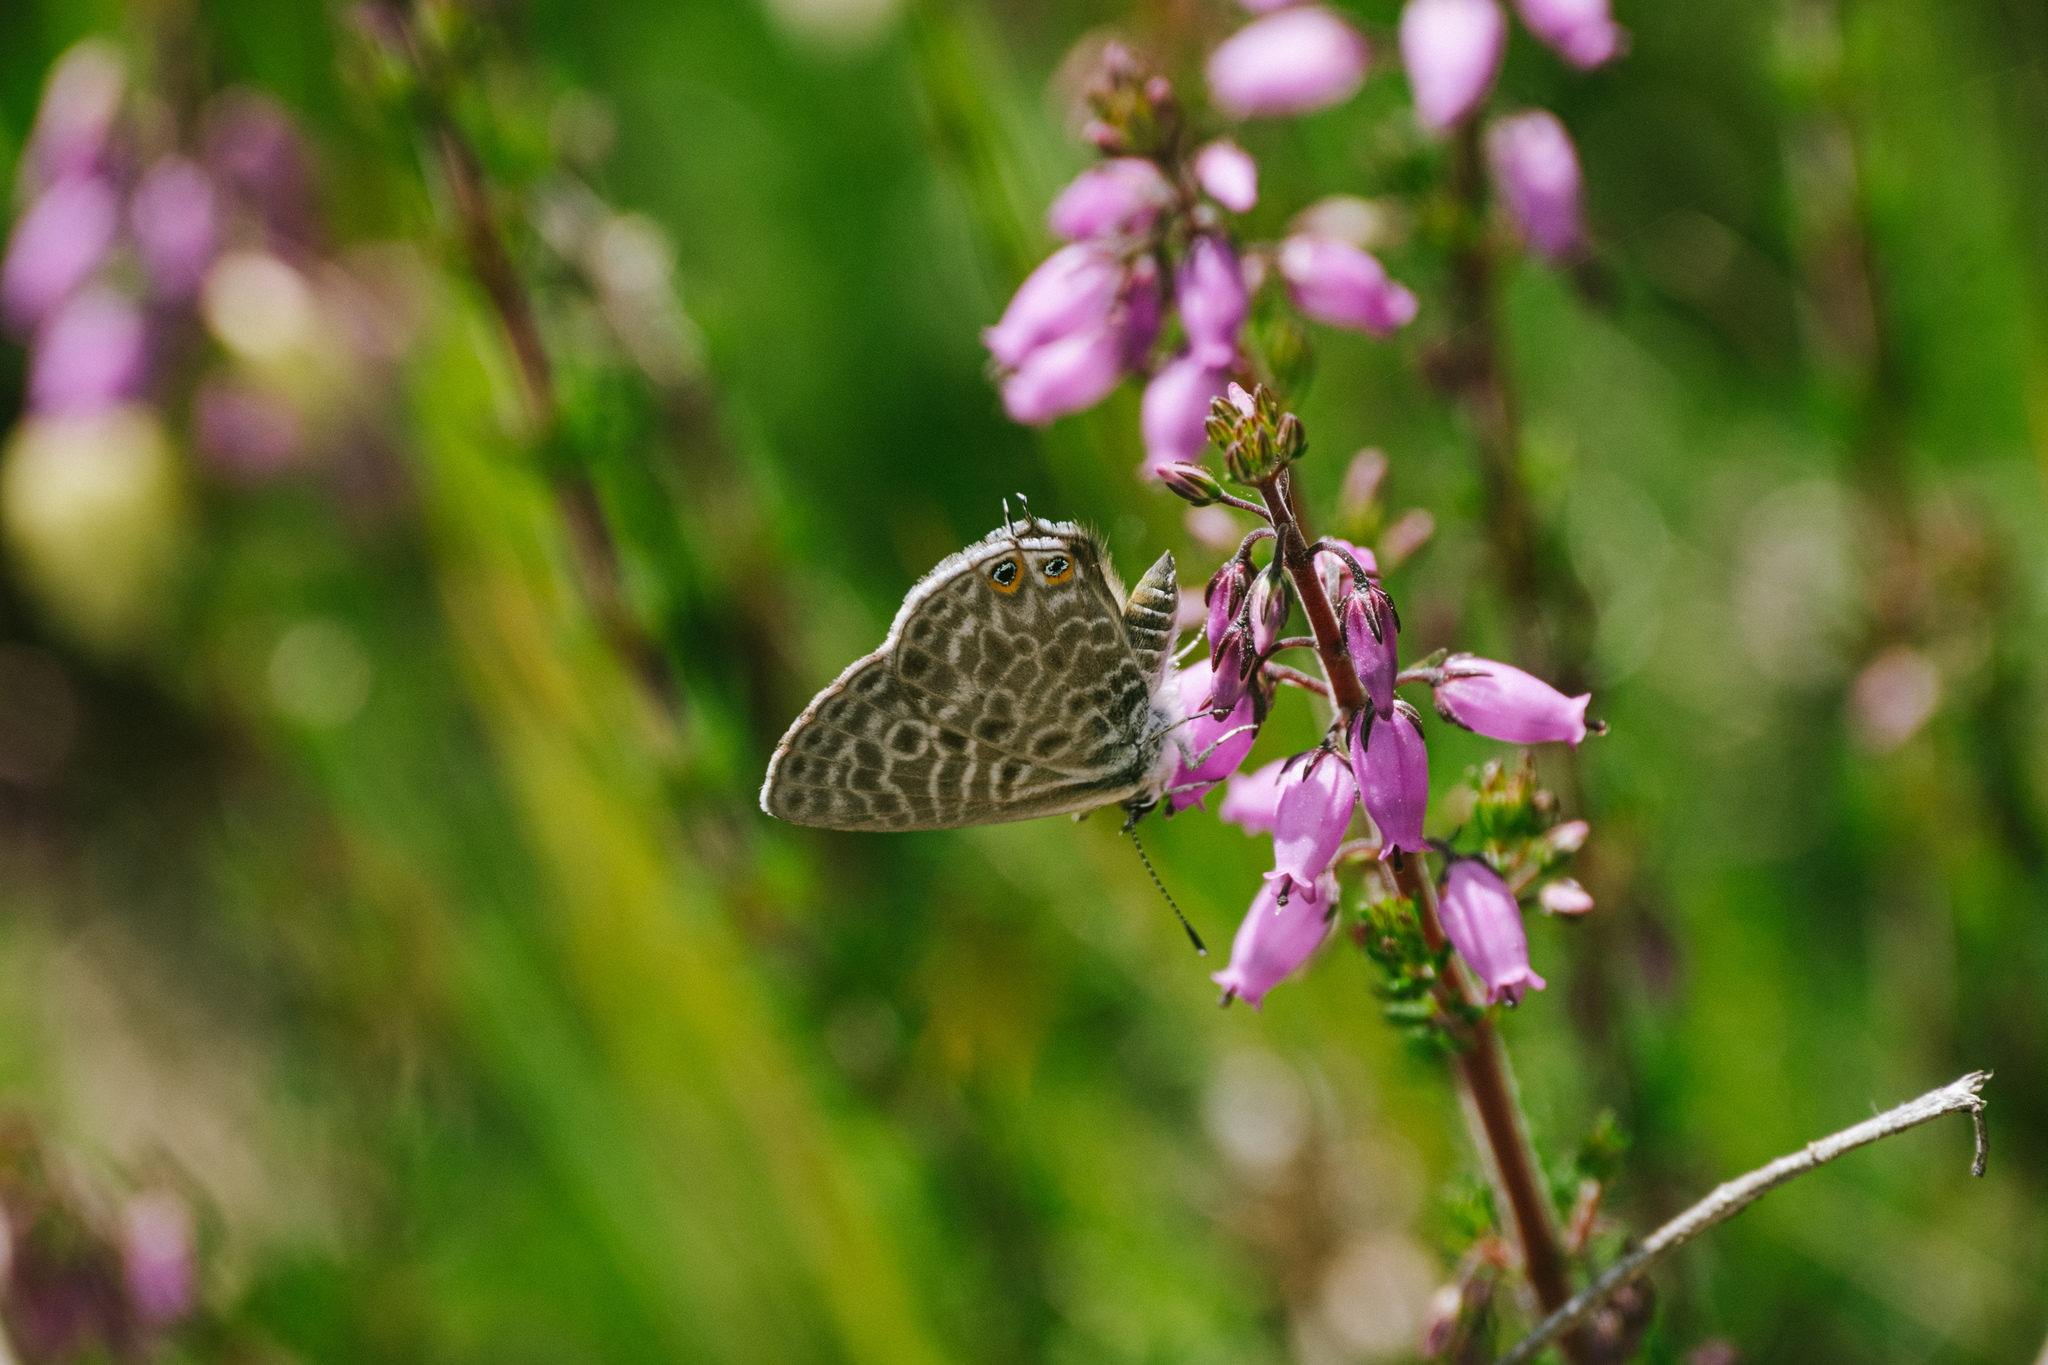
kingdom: Animalia
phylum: Arthropoda
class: Insecta
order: Lepidoptera
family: Lycaenidae
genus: Leptotes
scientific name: Leptotes pirithous
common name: Lang's short-tailed blue
